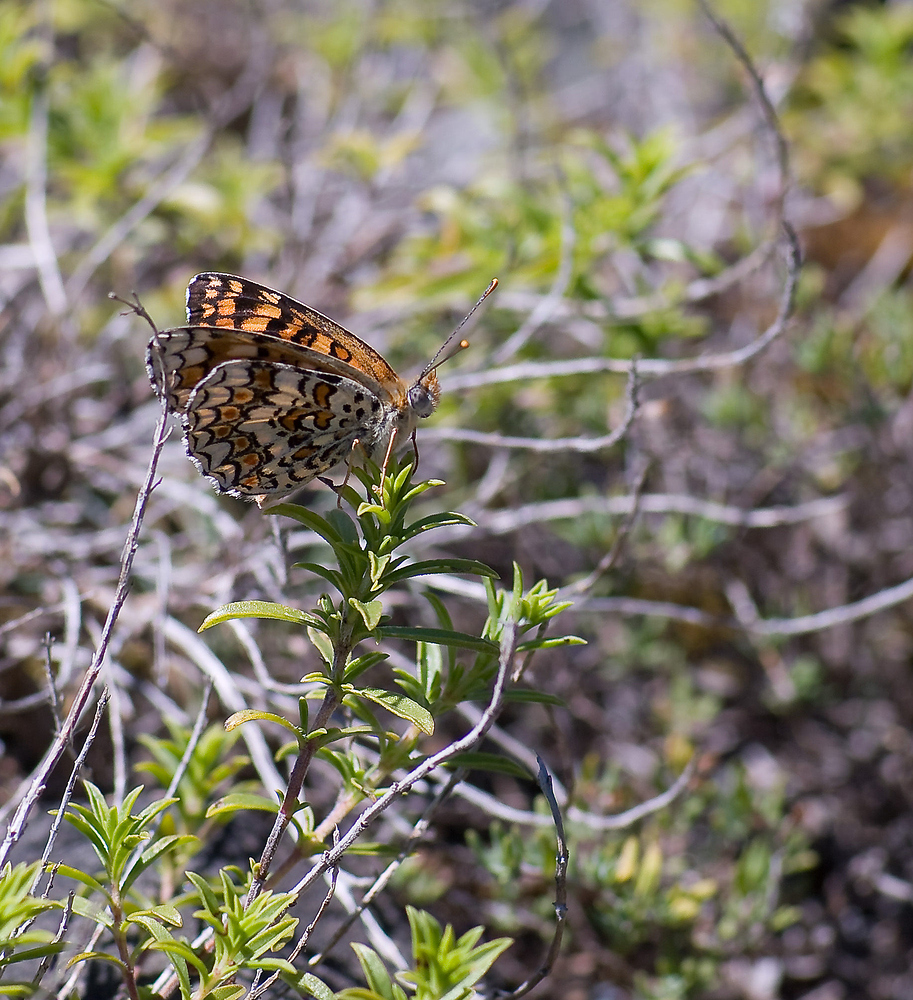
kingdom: Animalia
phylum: Arthropoda
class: Insecta
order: Lepidoptera
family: Nymphalidae
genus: Melitaea
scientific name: Melitaea phoebe
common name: Knapweed fritillary
